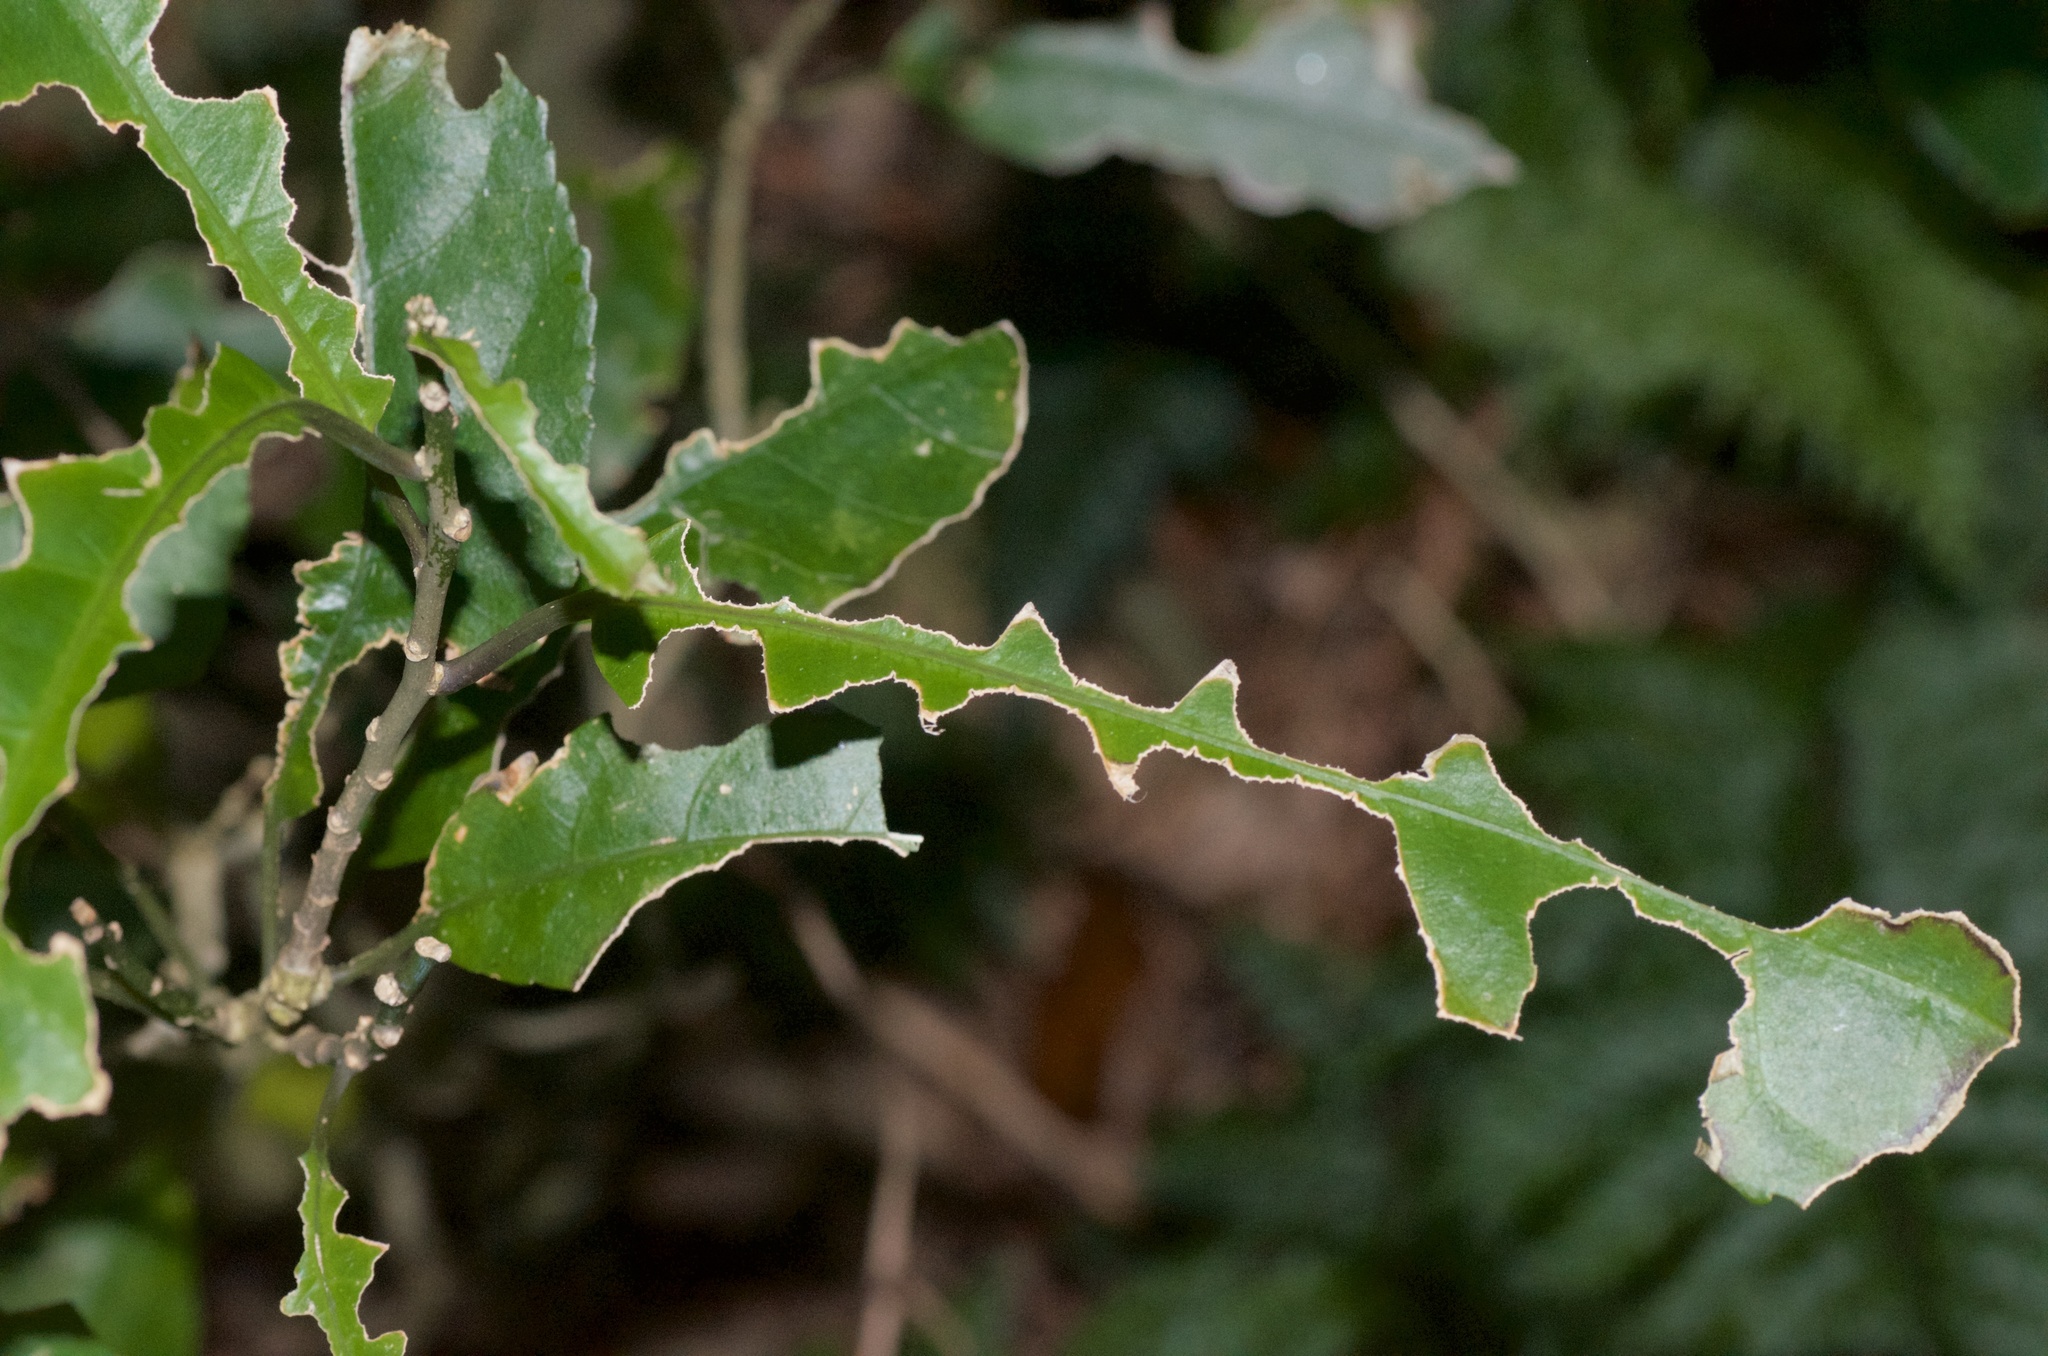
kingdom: Plantae
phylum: Tracheophyta
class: Magnoliopsida
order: Malpighiales
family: Violaceae
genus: Melicytus
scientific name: Melicytus ramiflorus
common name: Mahoe
